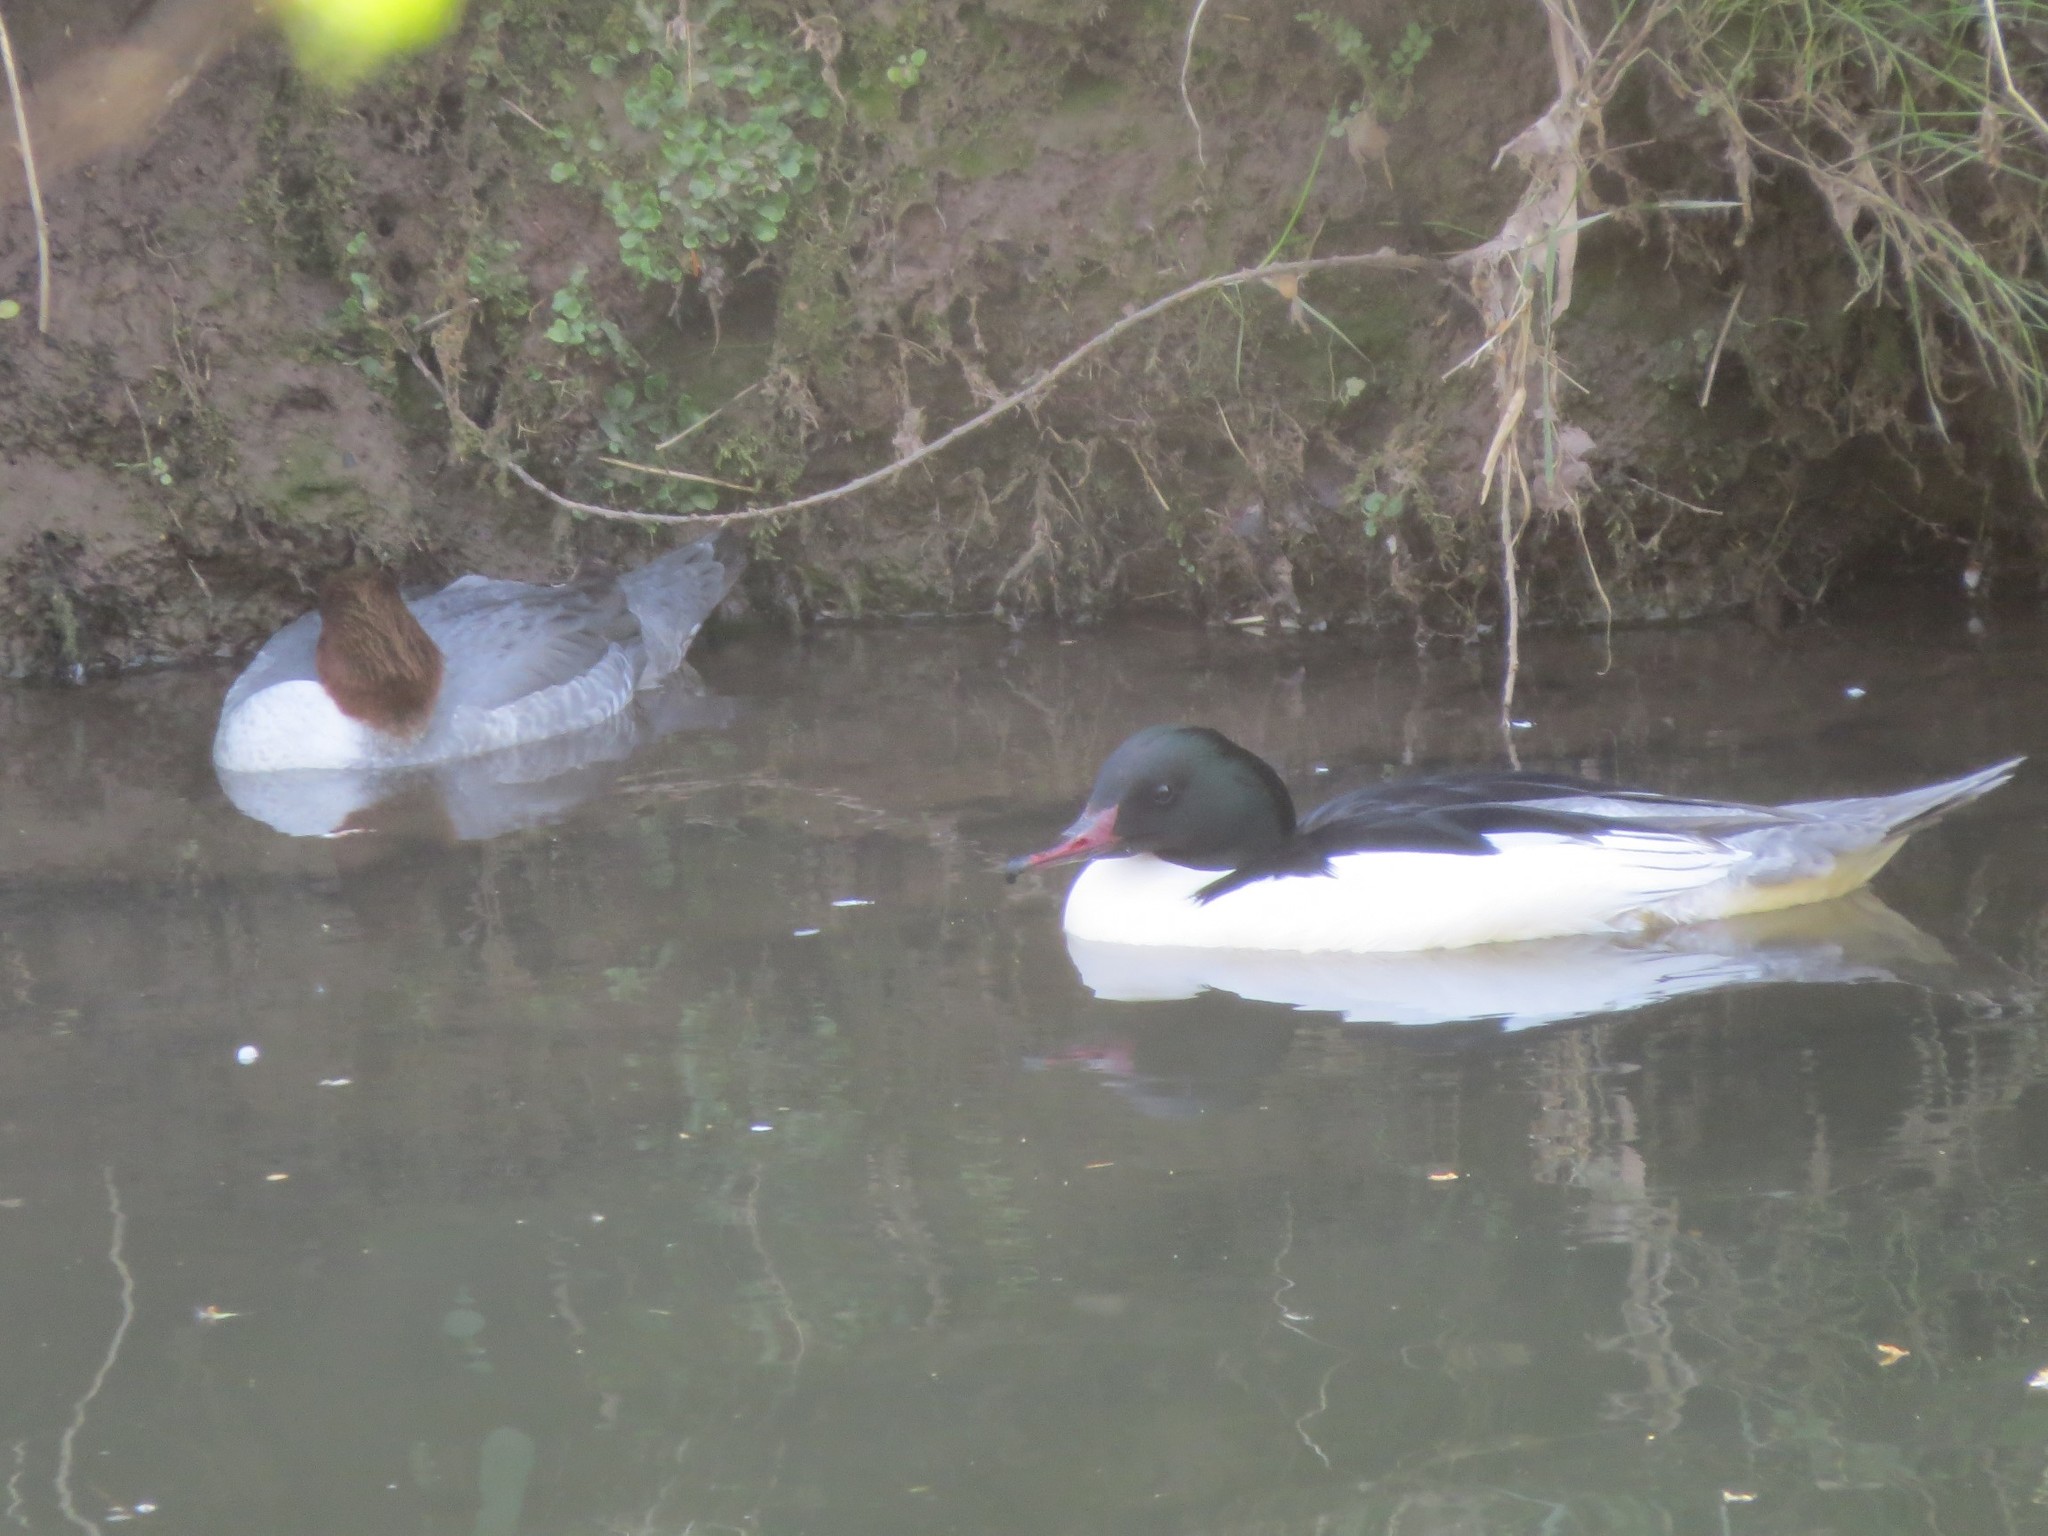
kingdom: Animalia
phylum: Chordata
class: Aves
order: Anseriformes
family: Anatidae
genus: Mergus
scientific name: Mergus merganser
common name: Common merganser
